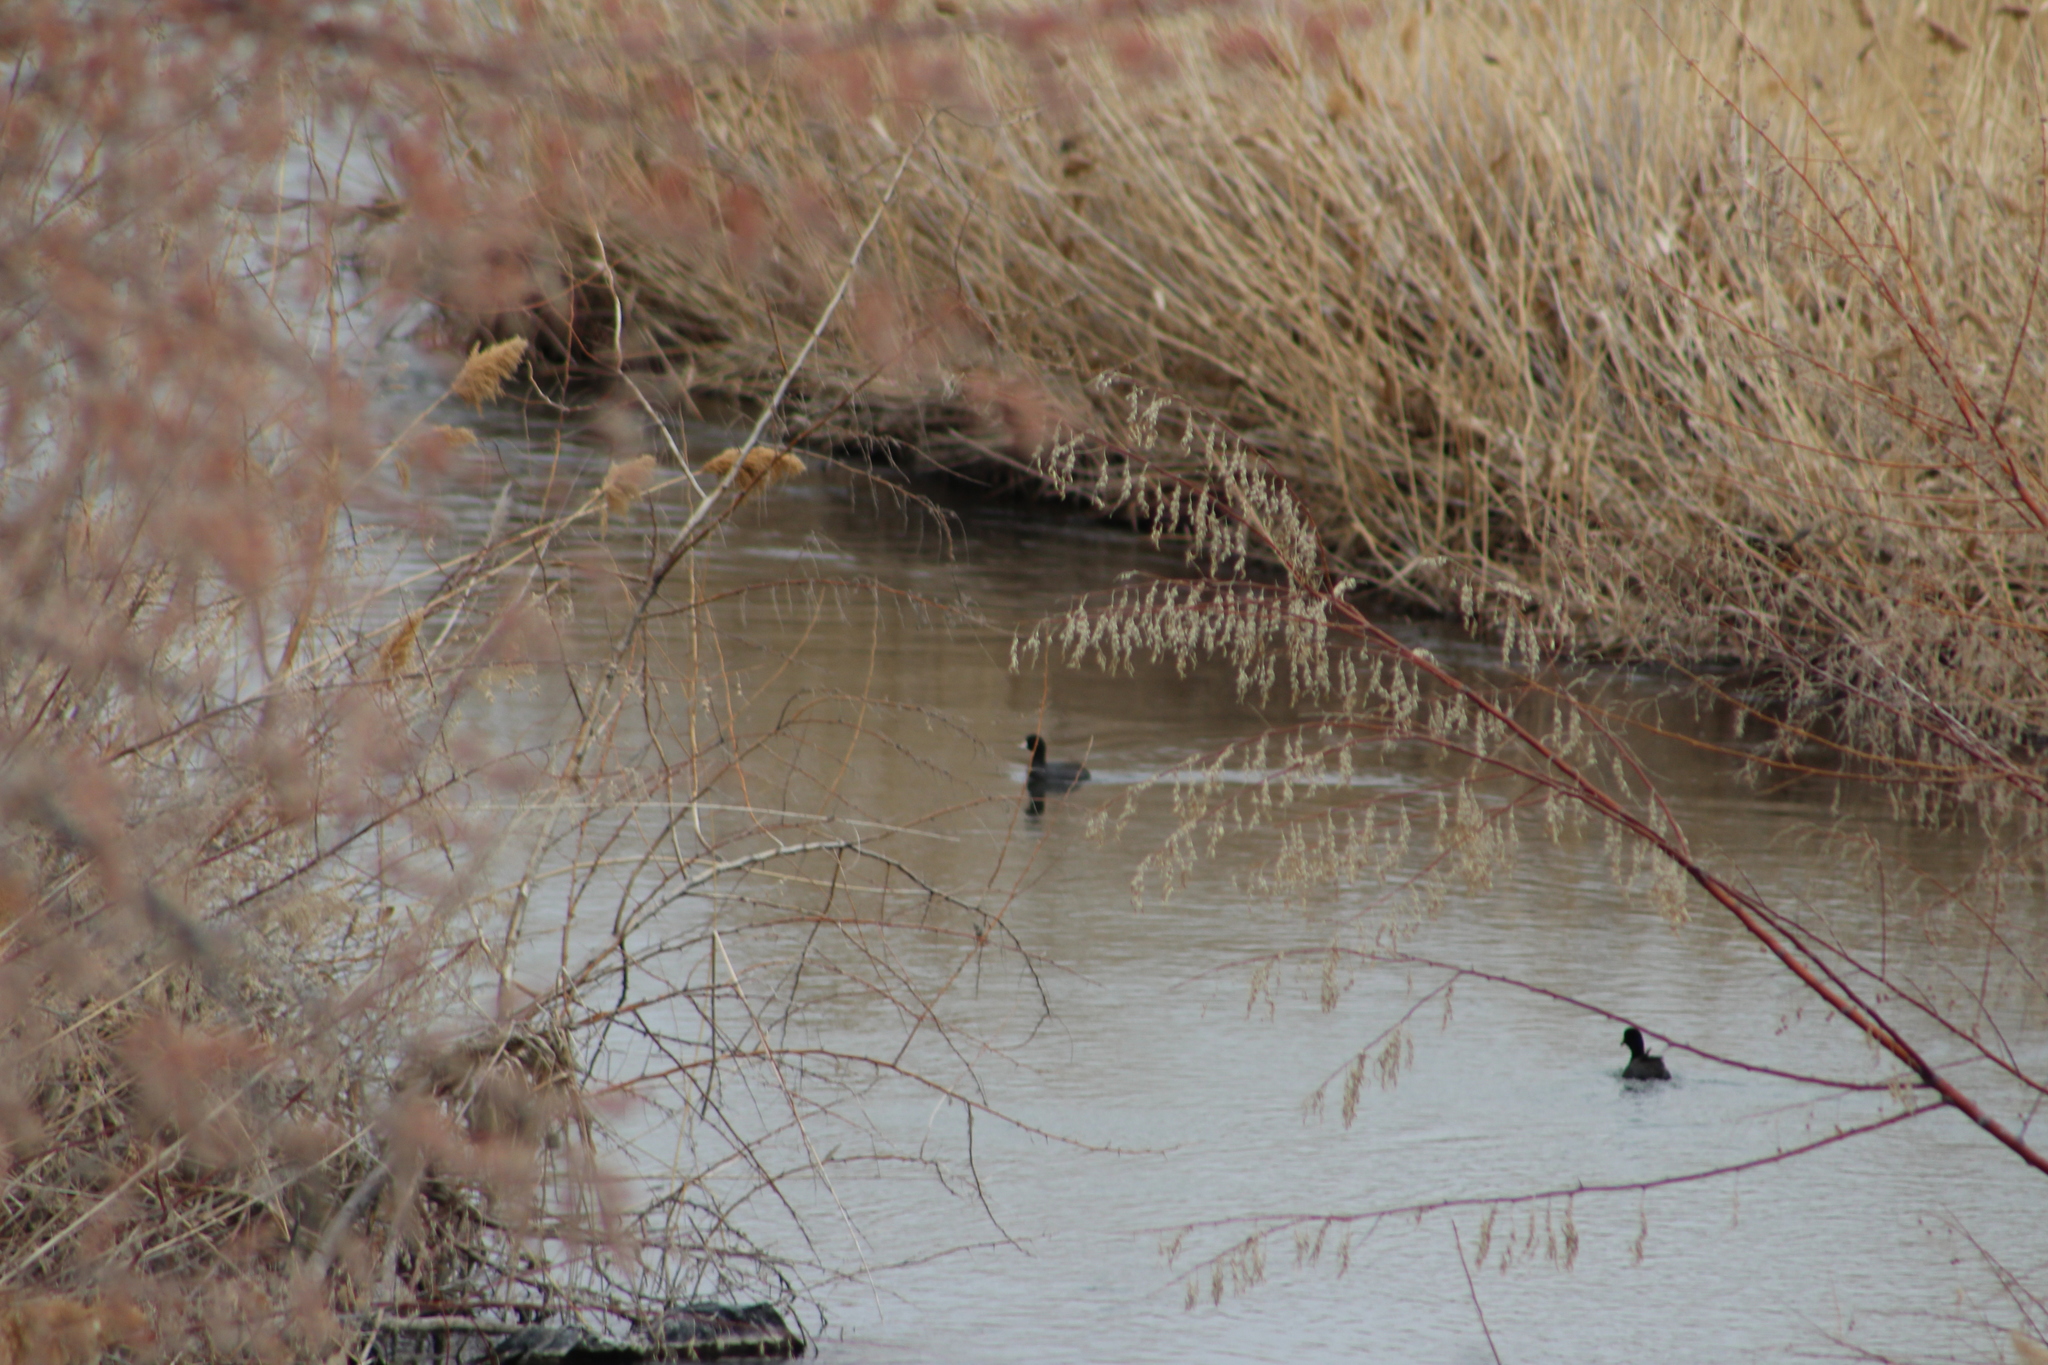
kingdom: Animalia
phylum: Chordata
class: Aves
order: Gruiformes
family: Rallidae
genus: Fulica
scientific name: Fulica americana
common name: American coot
